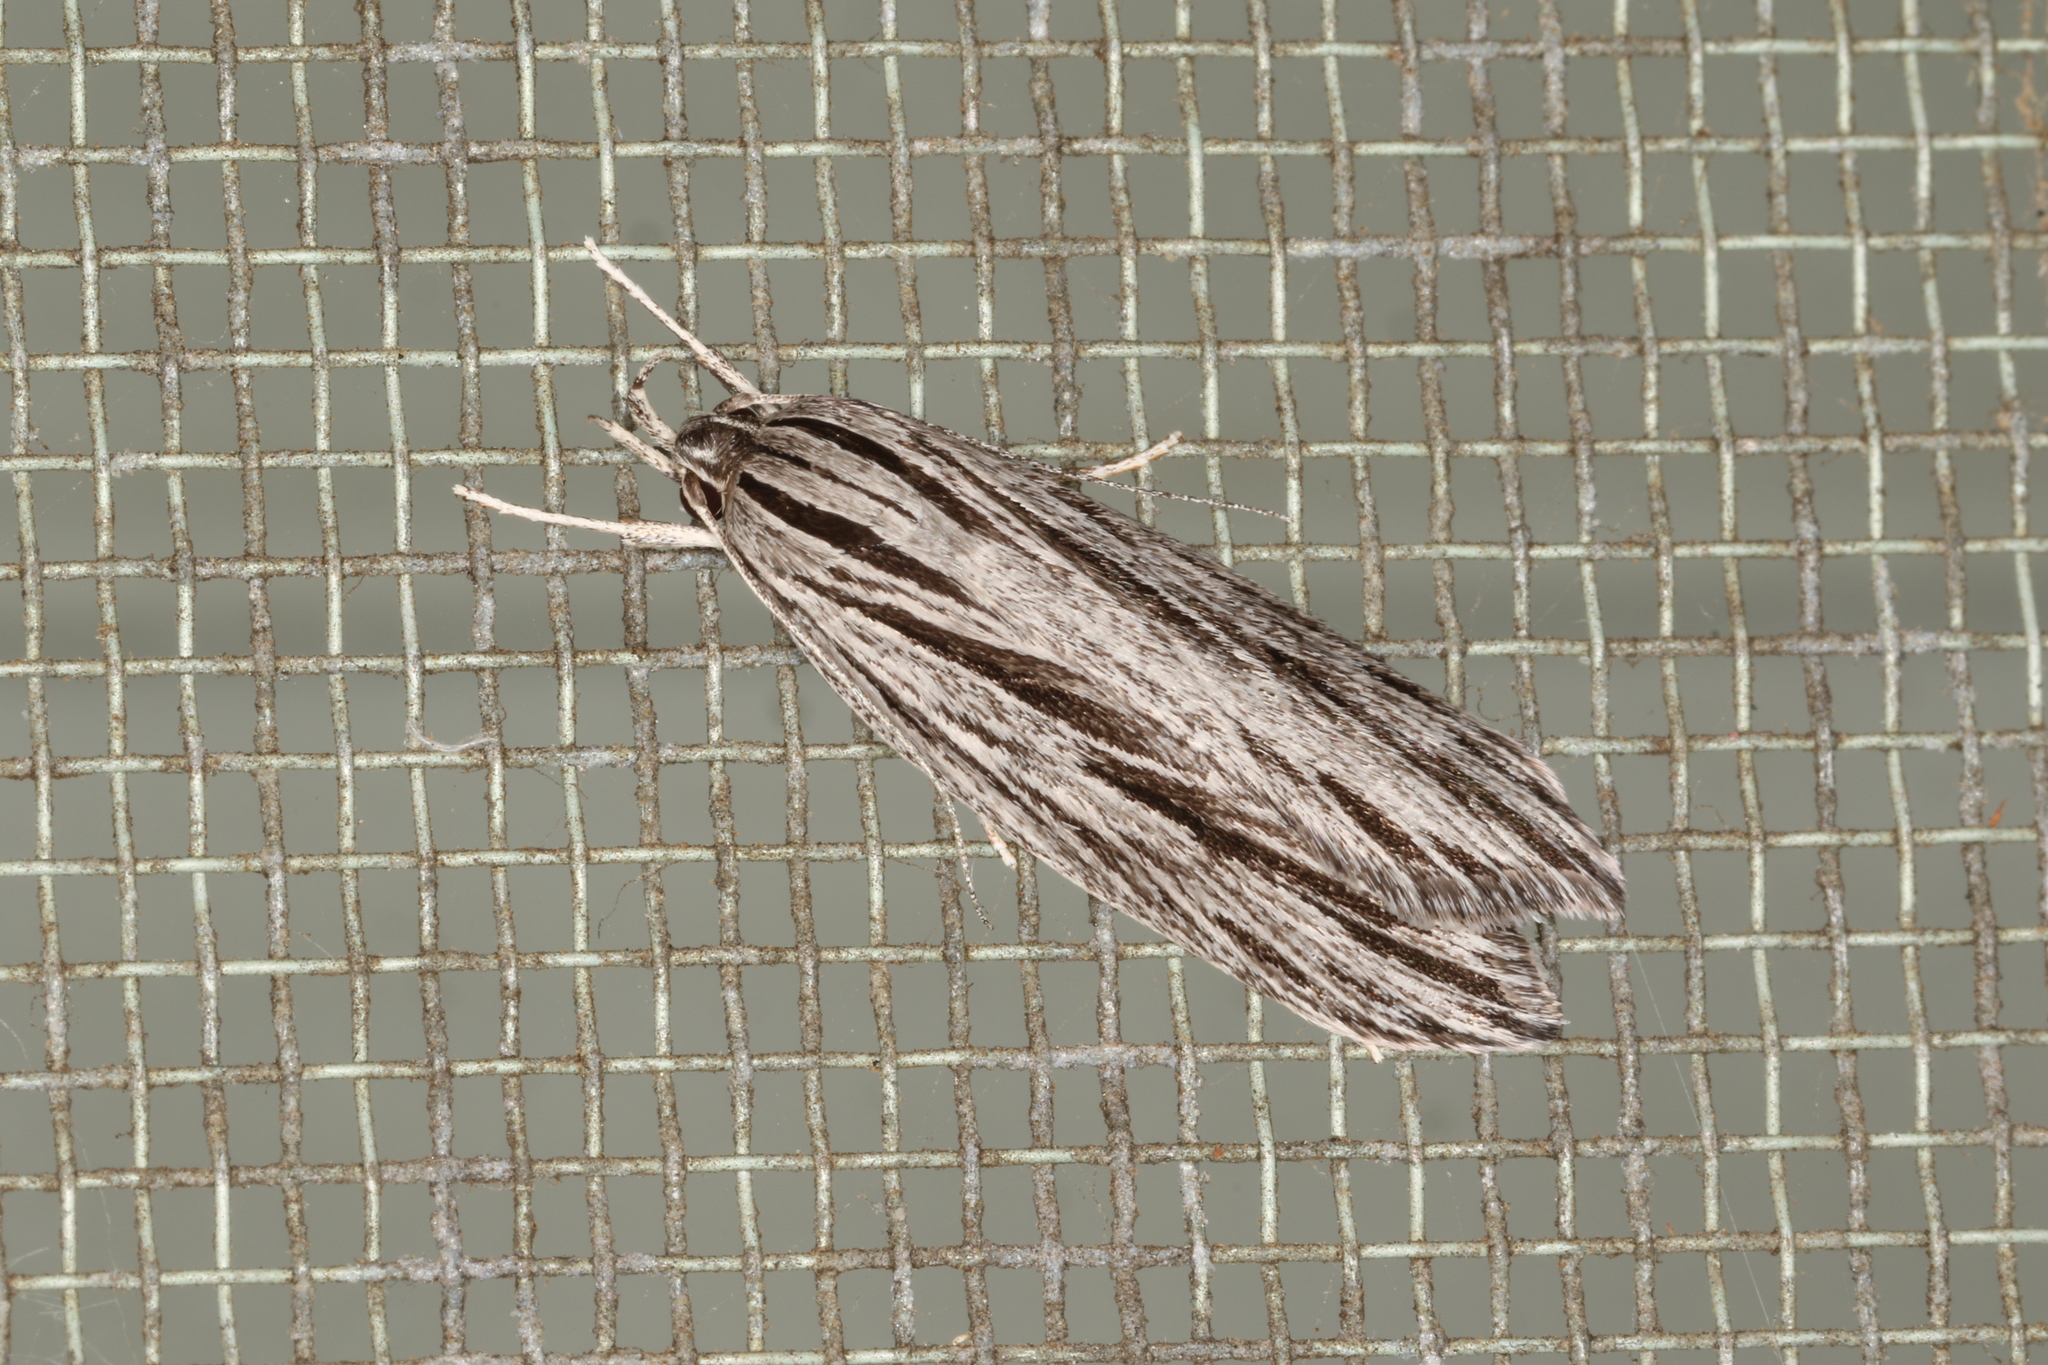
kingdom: Animalia
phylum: Arthropoda
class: Insecta
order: Lepidoptera
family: Xyloryctidae
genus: Leistarcha
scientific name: Leistarcha scitissimella
